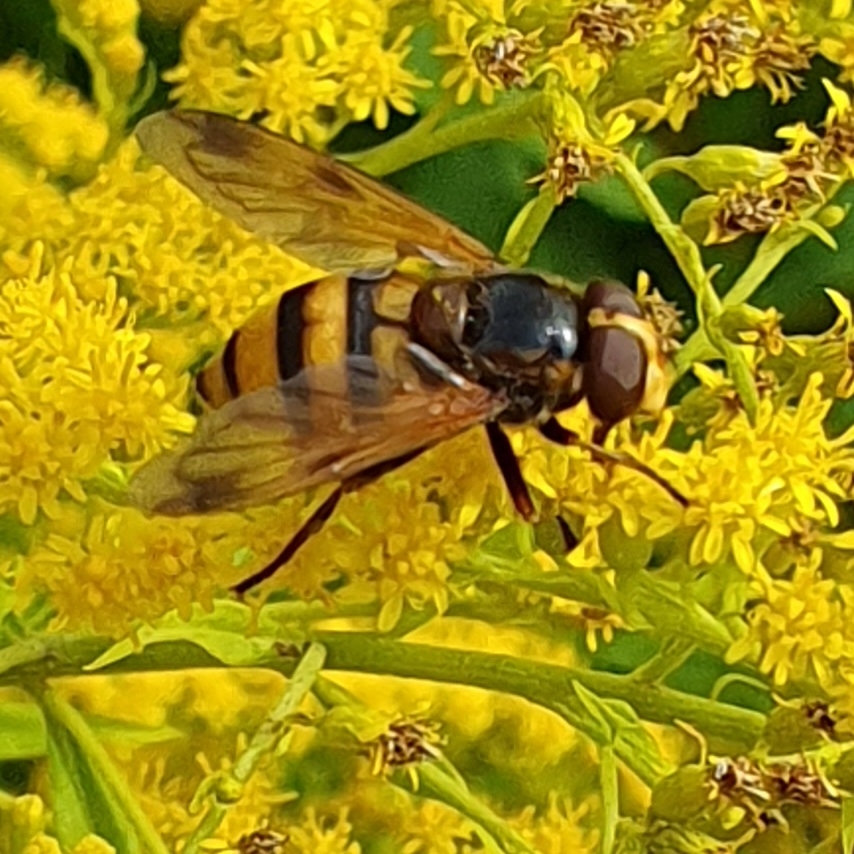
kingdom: Animalia
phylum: Arthropoda
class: Insecta
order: Diptera
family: Syrphidae
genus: Volucella
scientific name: Volucella inanis
